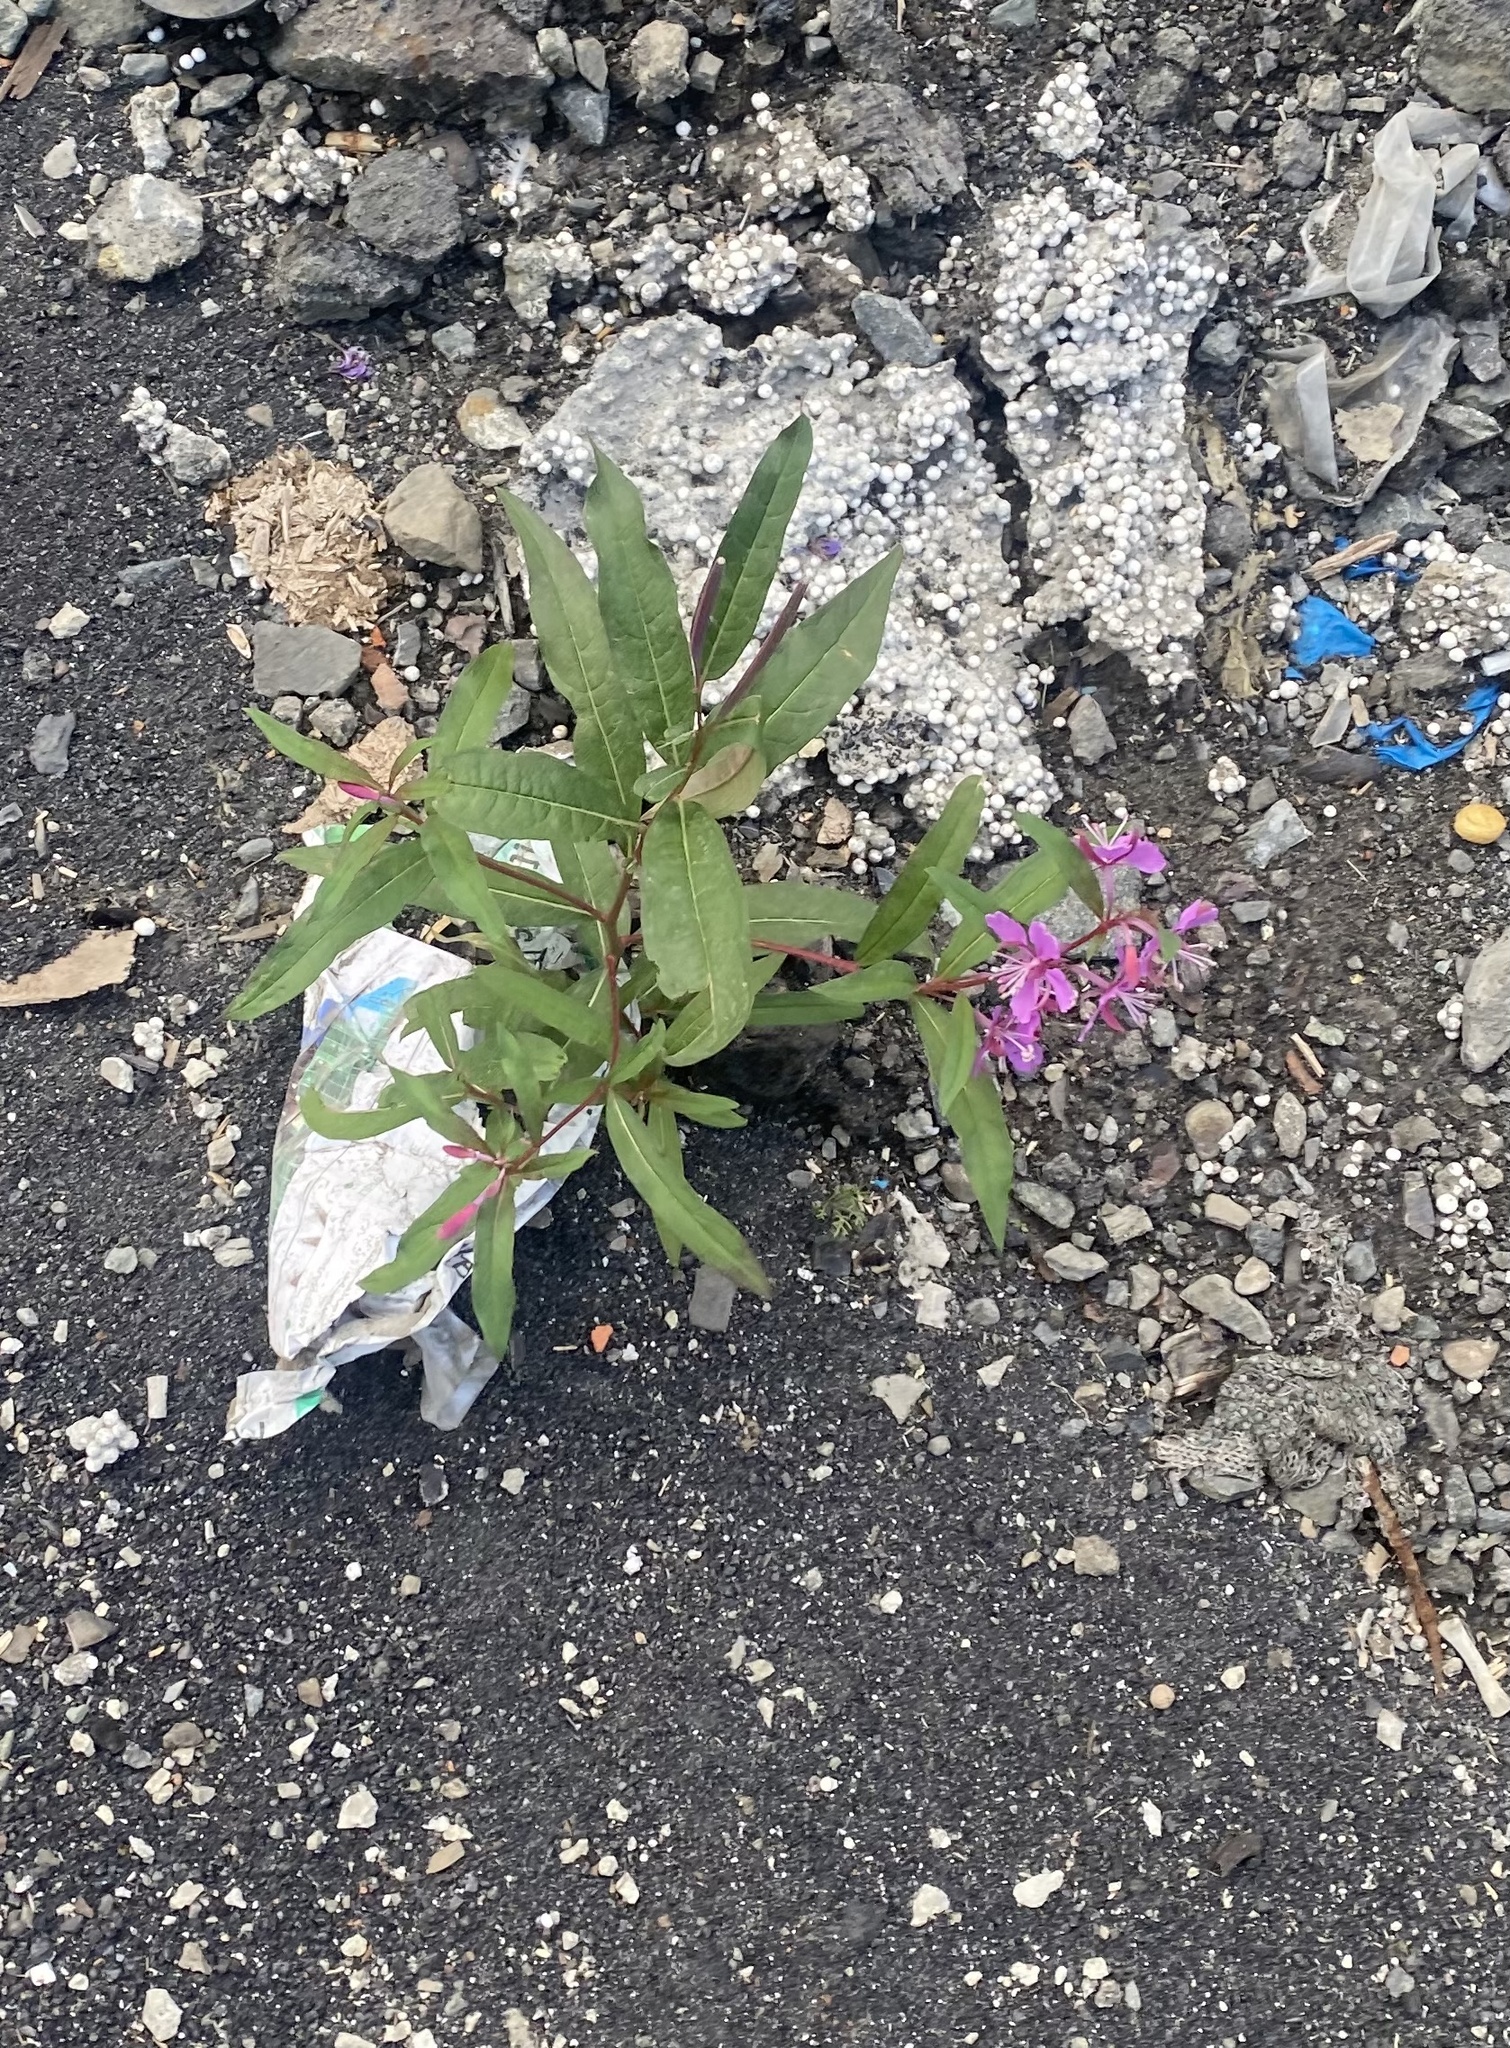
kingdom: Plantae
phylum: Tracheophyta
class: Magnoliopsida
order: Myrtales
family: Onagraceae
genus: Chamaenerion
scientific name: Chamaenerion angustifolium
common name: Fireweed
